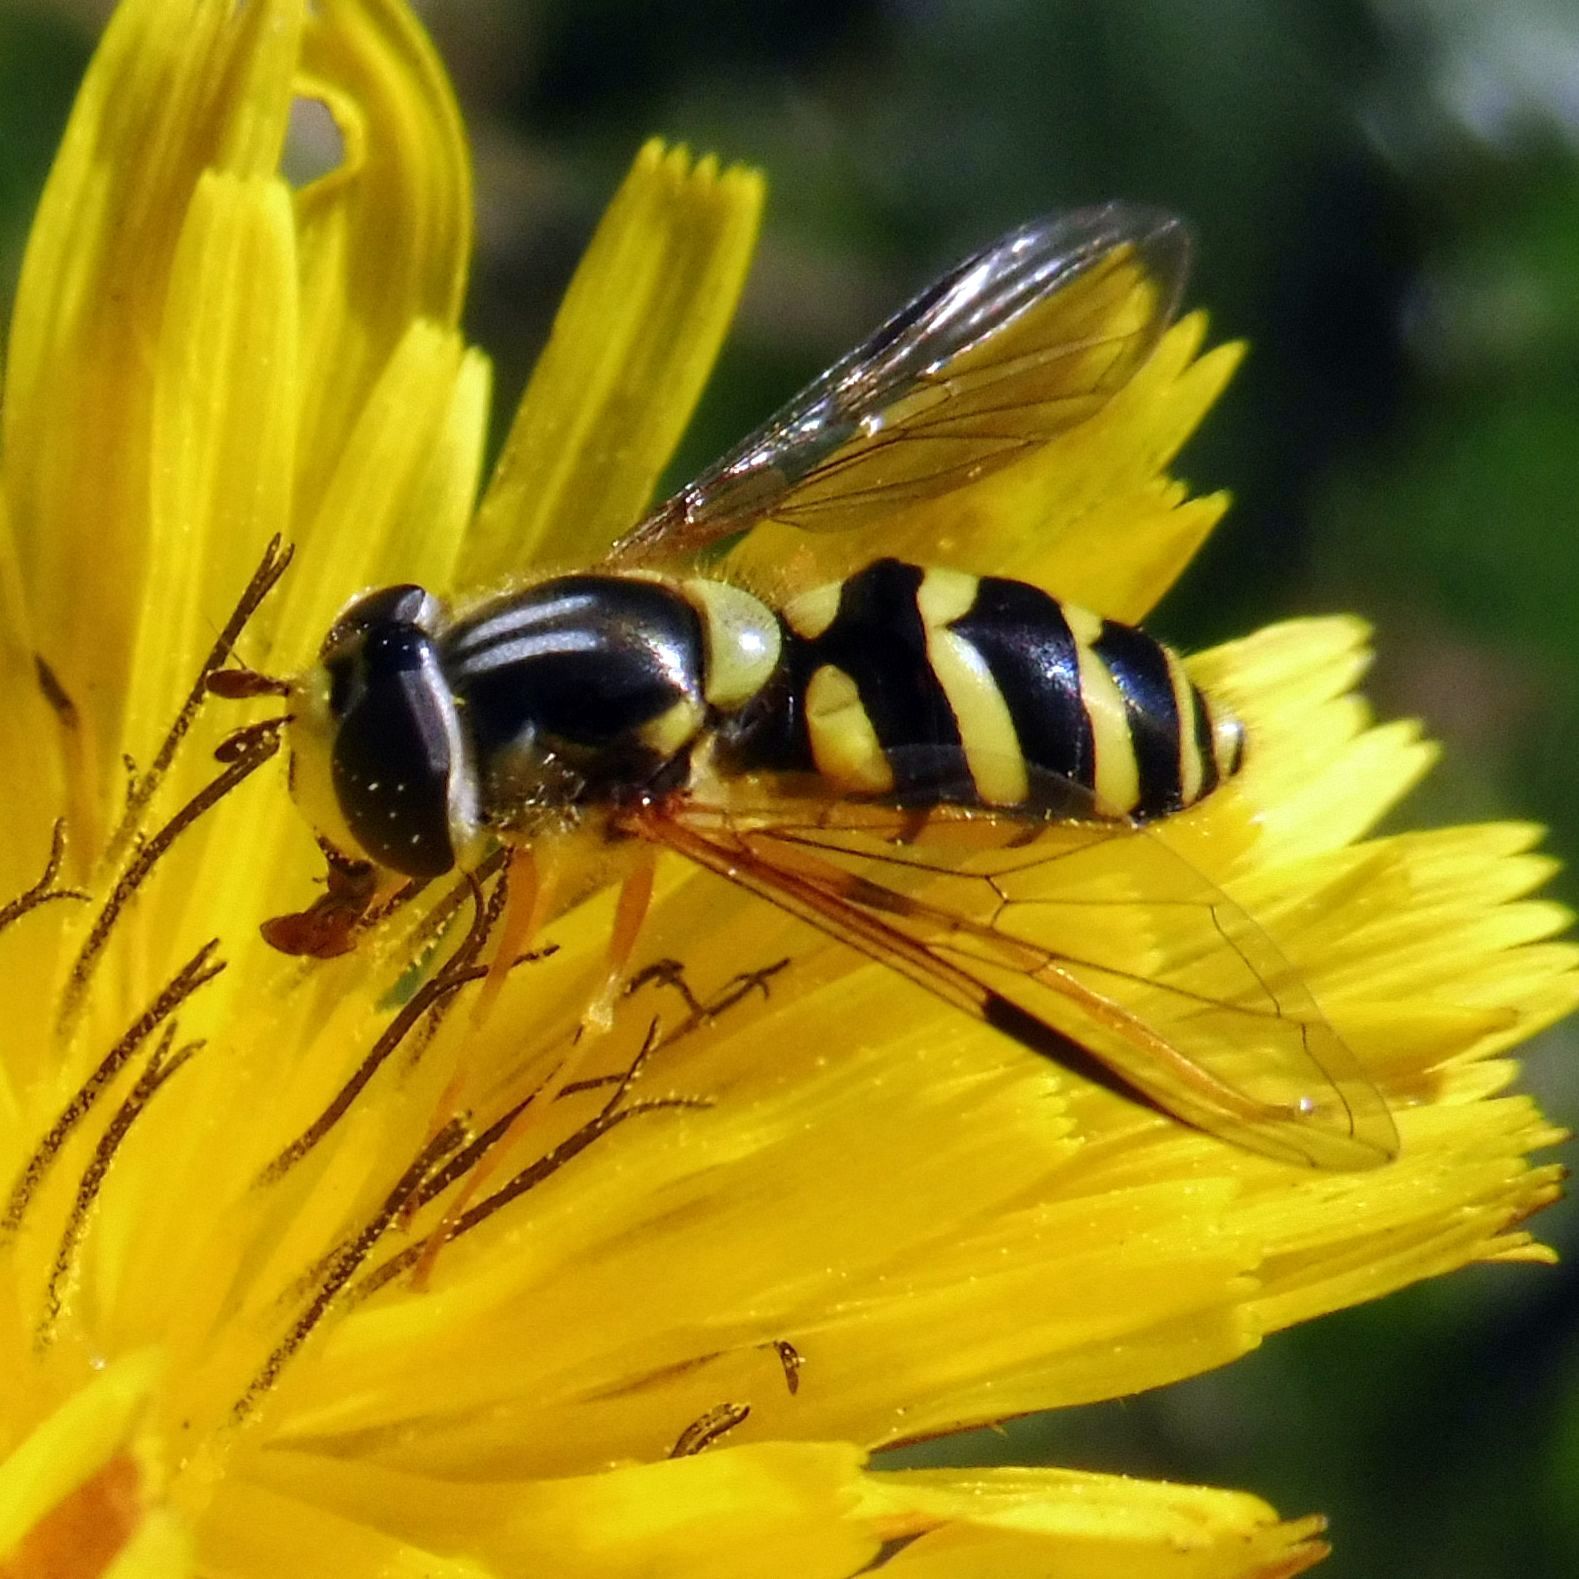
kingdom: Animalia
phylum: Arthropoda
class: Insecta
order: Diptera
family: Syrphidae
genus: Dasysyrphus
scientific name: Dasysyrphus albostriatus
